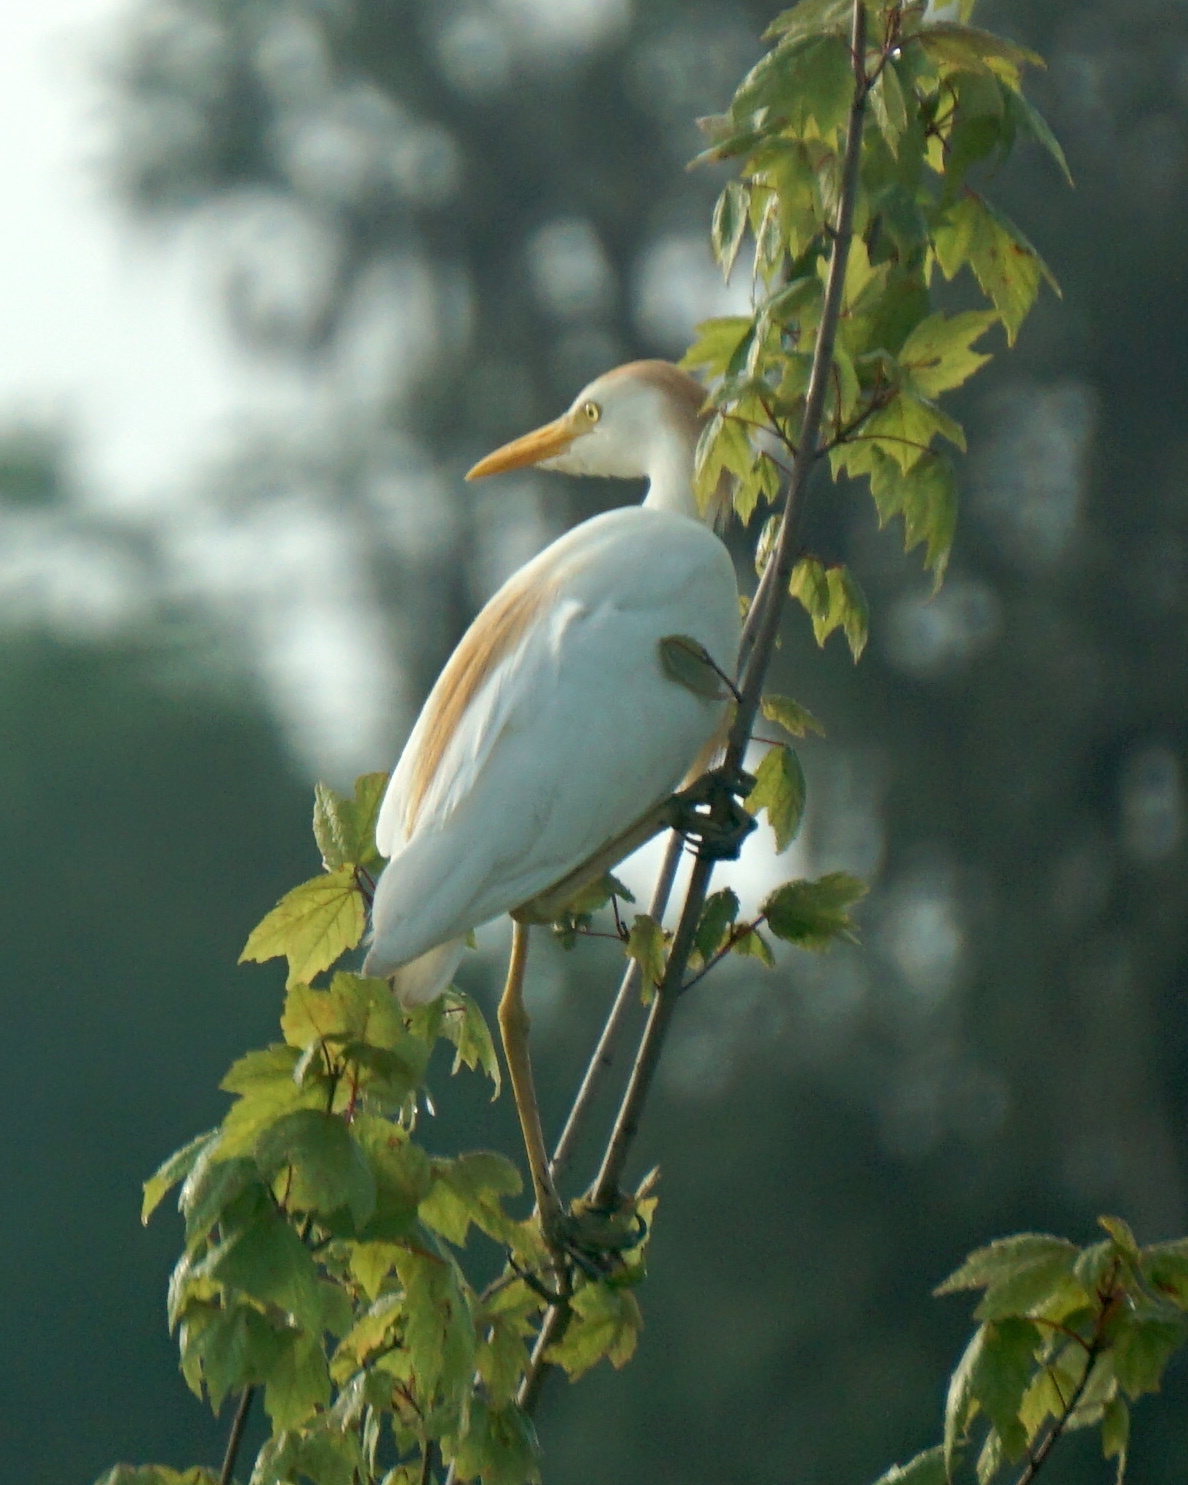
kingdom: Animalia
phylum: Chordata
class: Aves
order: Pelecaniformes
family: Ardeidae
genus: Bubulcus
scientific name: Bubulcus ibis
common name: Cattle egret
